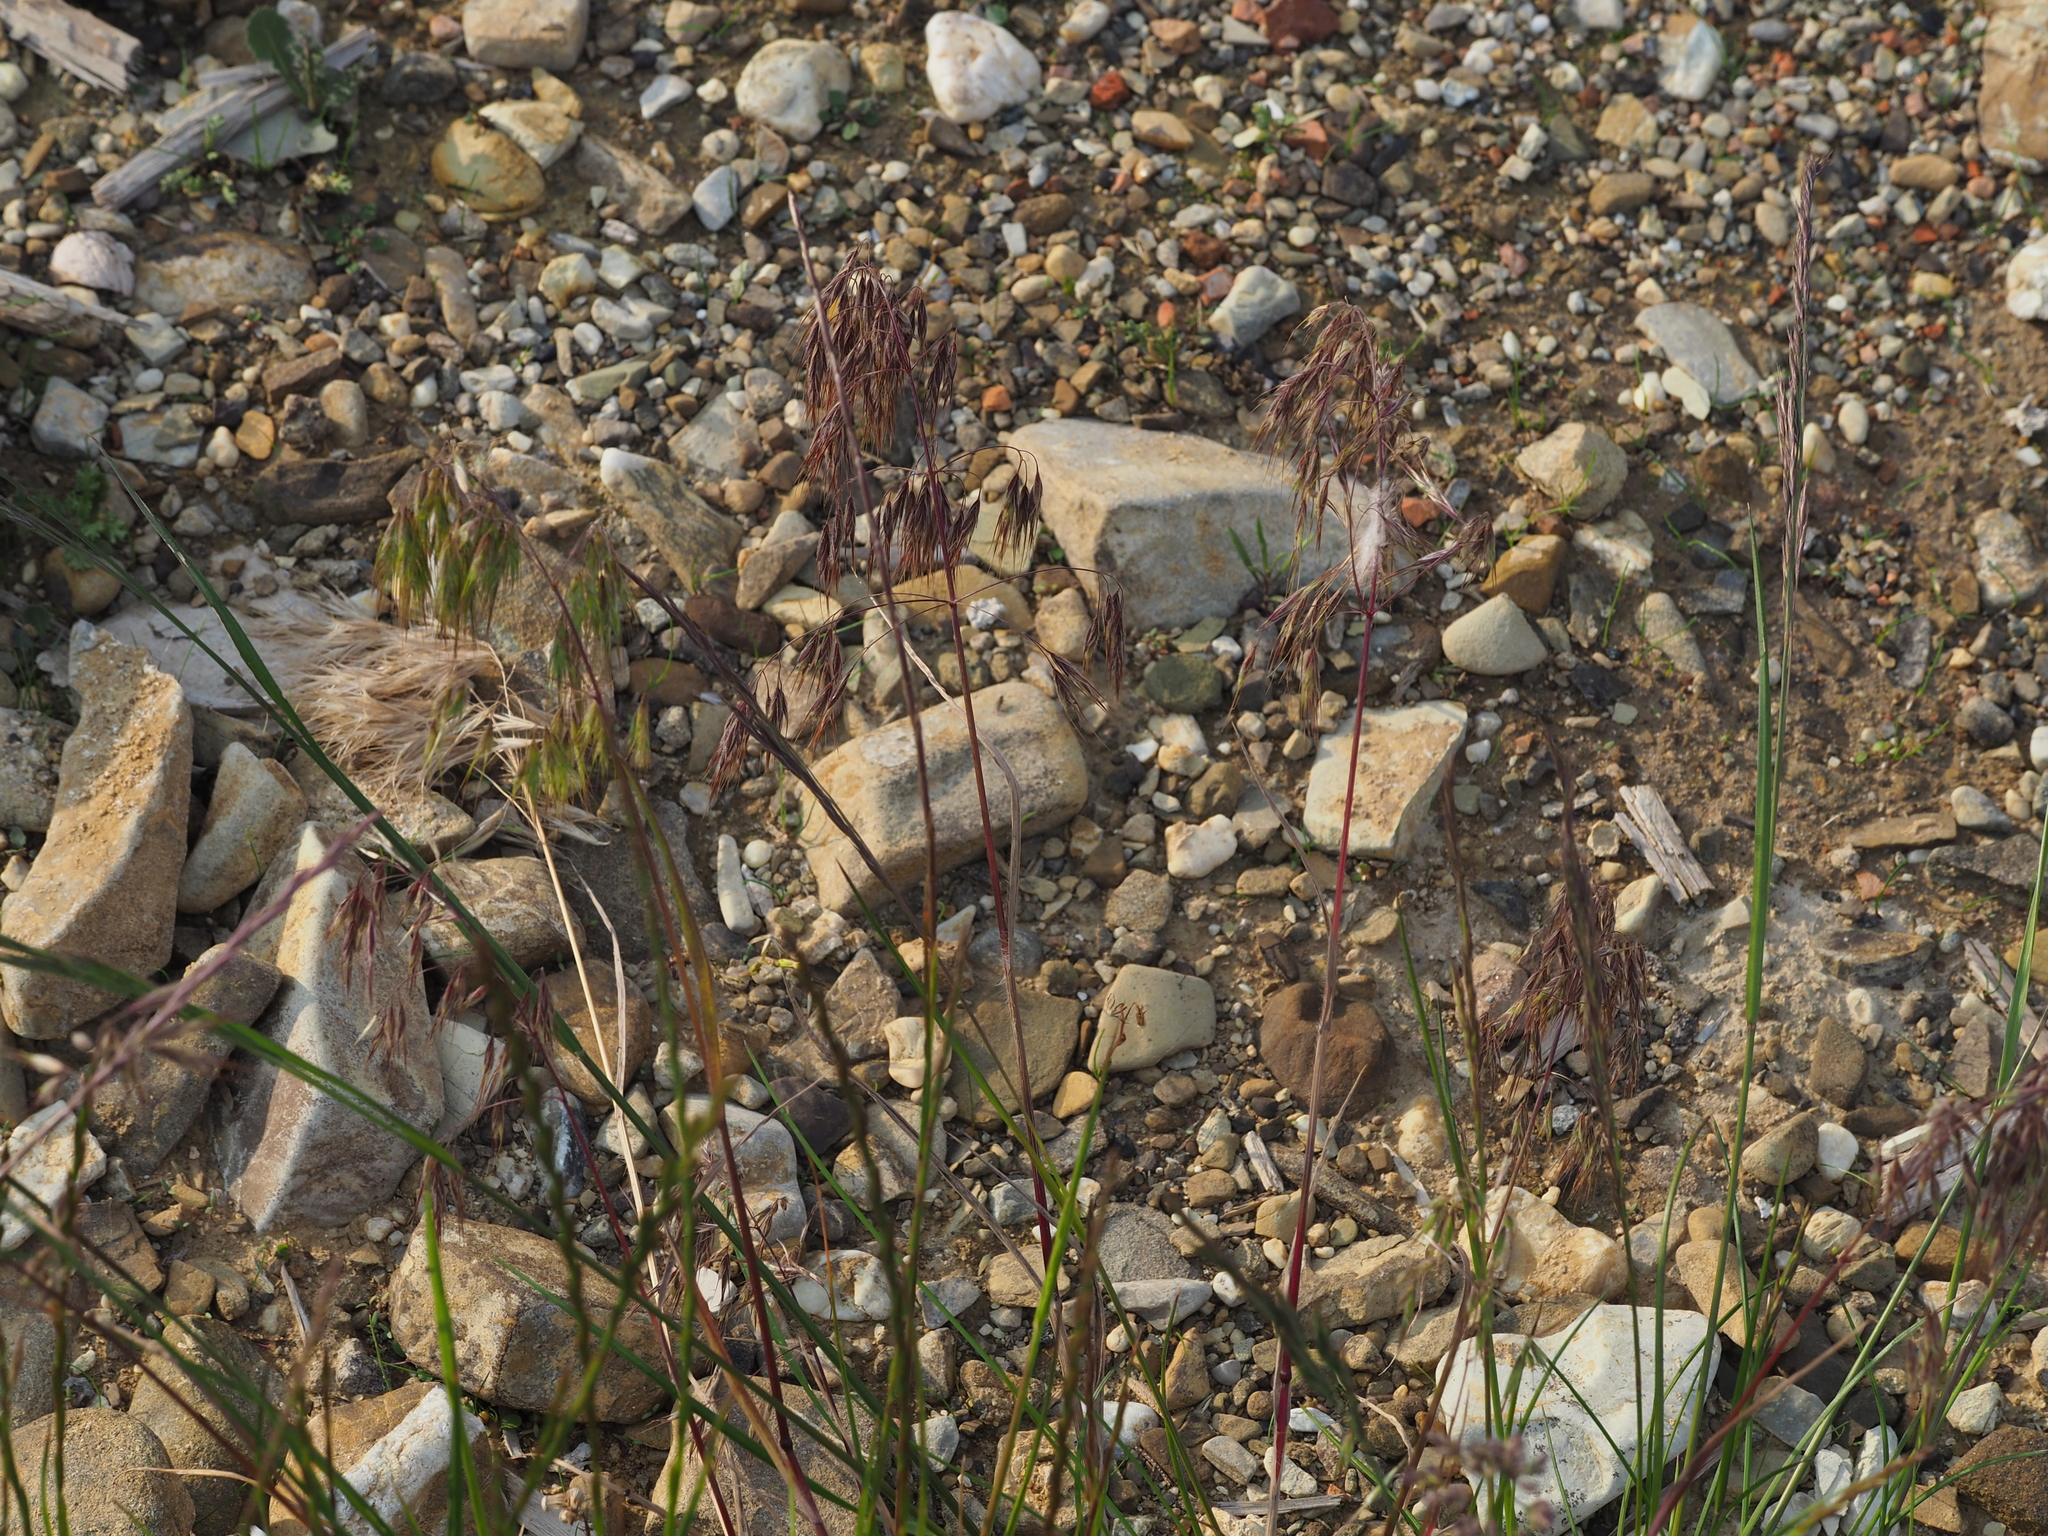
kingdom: Plantae
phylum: Tracheophyta
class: Liliopsida
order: Poales
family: Poaceae
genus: Bromus
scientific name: Bromus tectorum
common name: Cheatgrass
